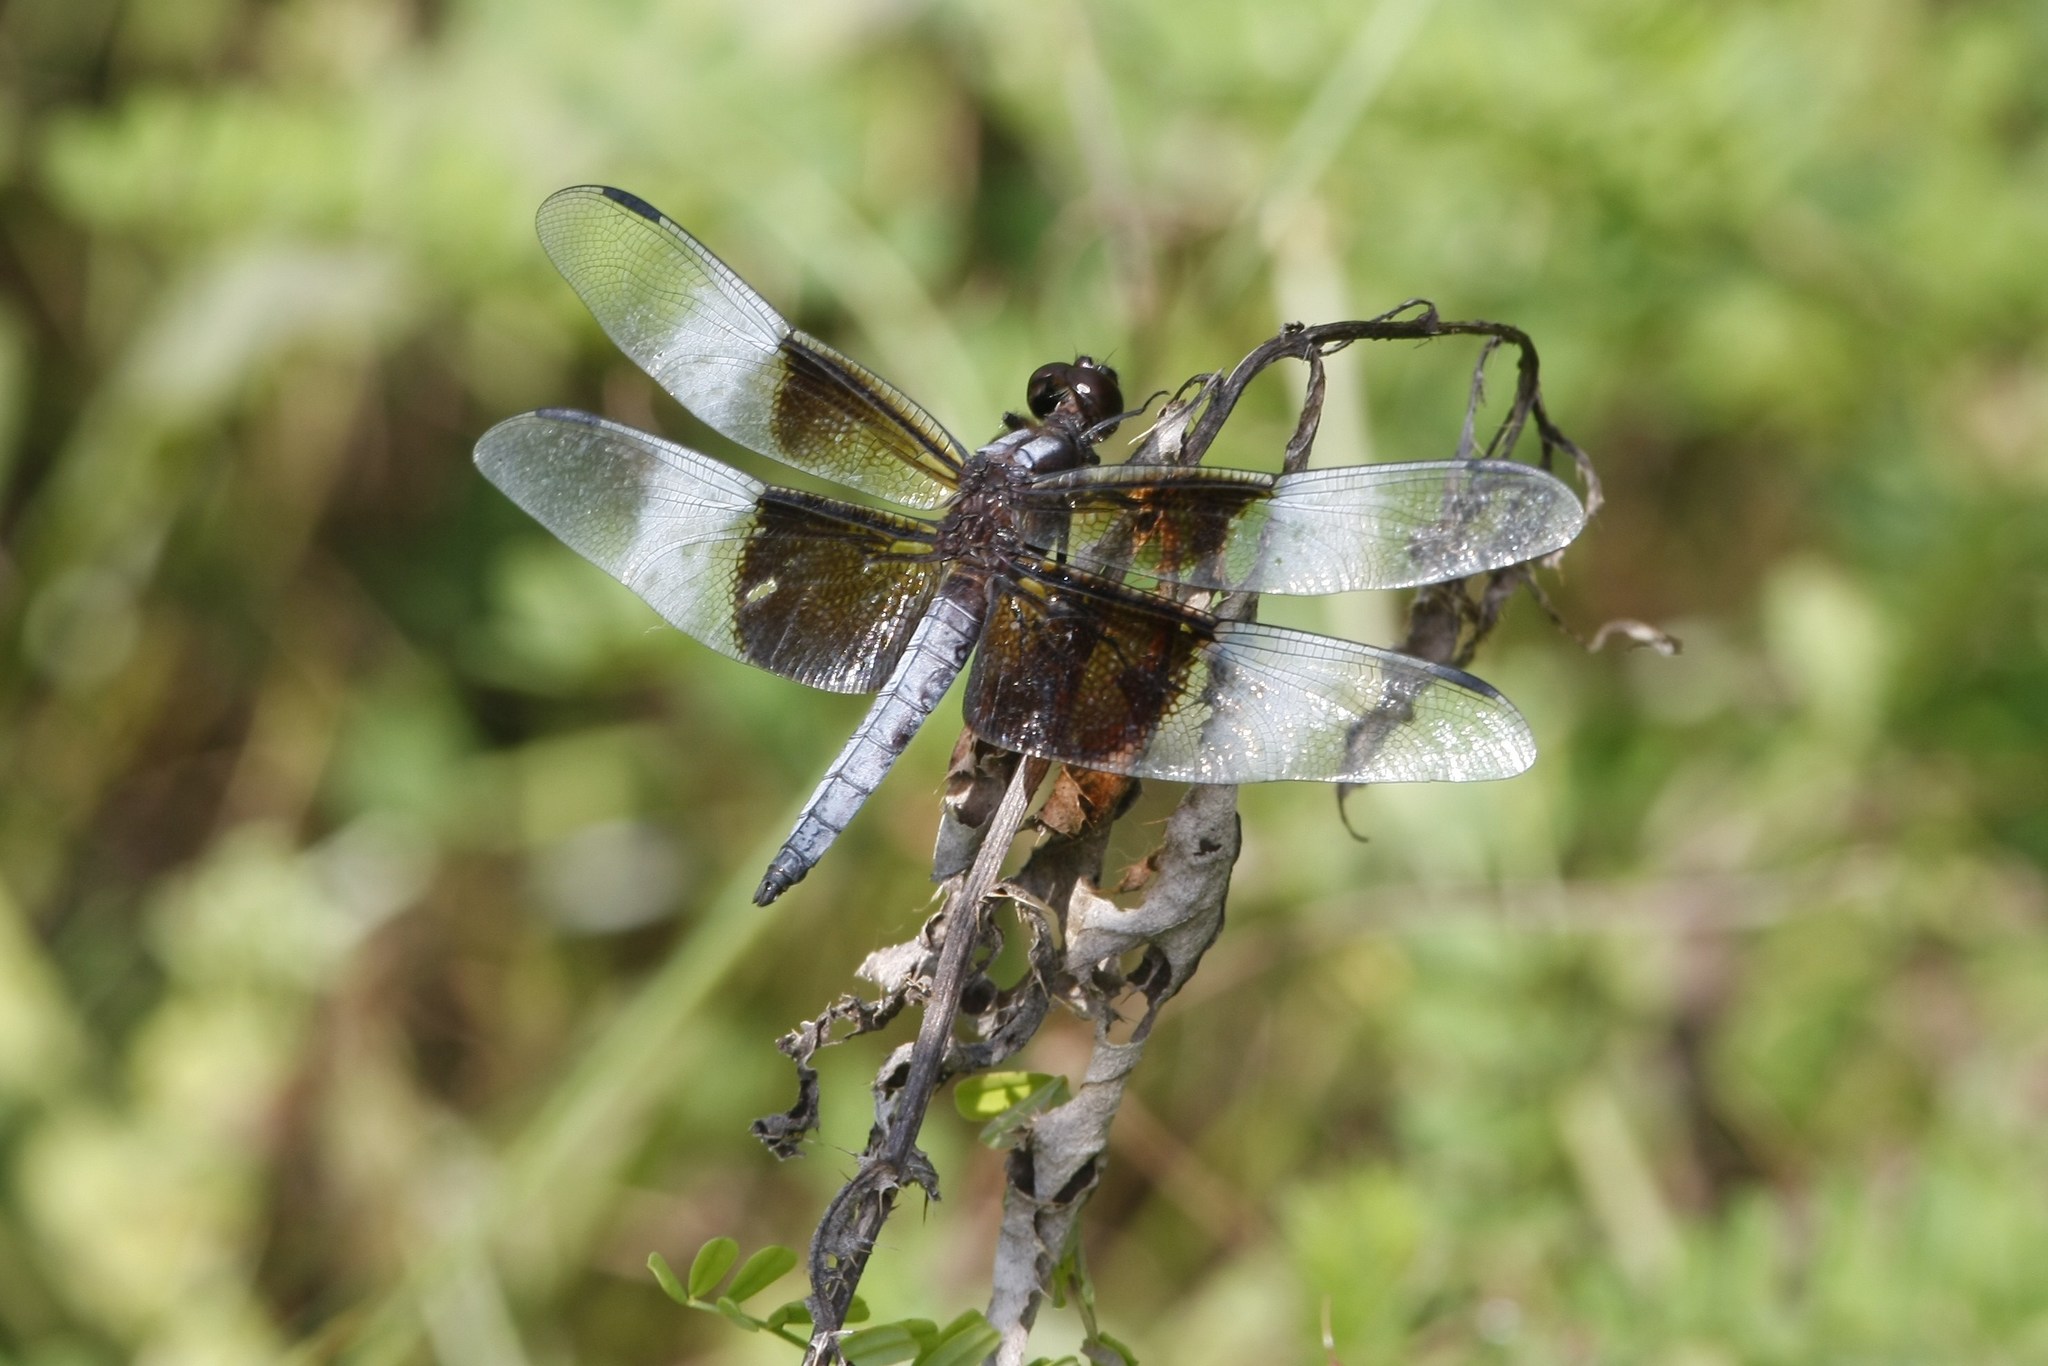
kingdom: Animalia
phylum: Arthropoda
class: Insecta
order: Odonata
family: Libellulidae
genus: Libellula
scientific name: Libellula luctuosa
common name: Widow skimmer
